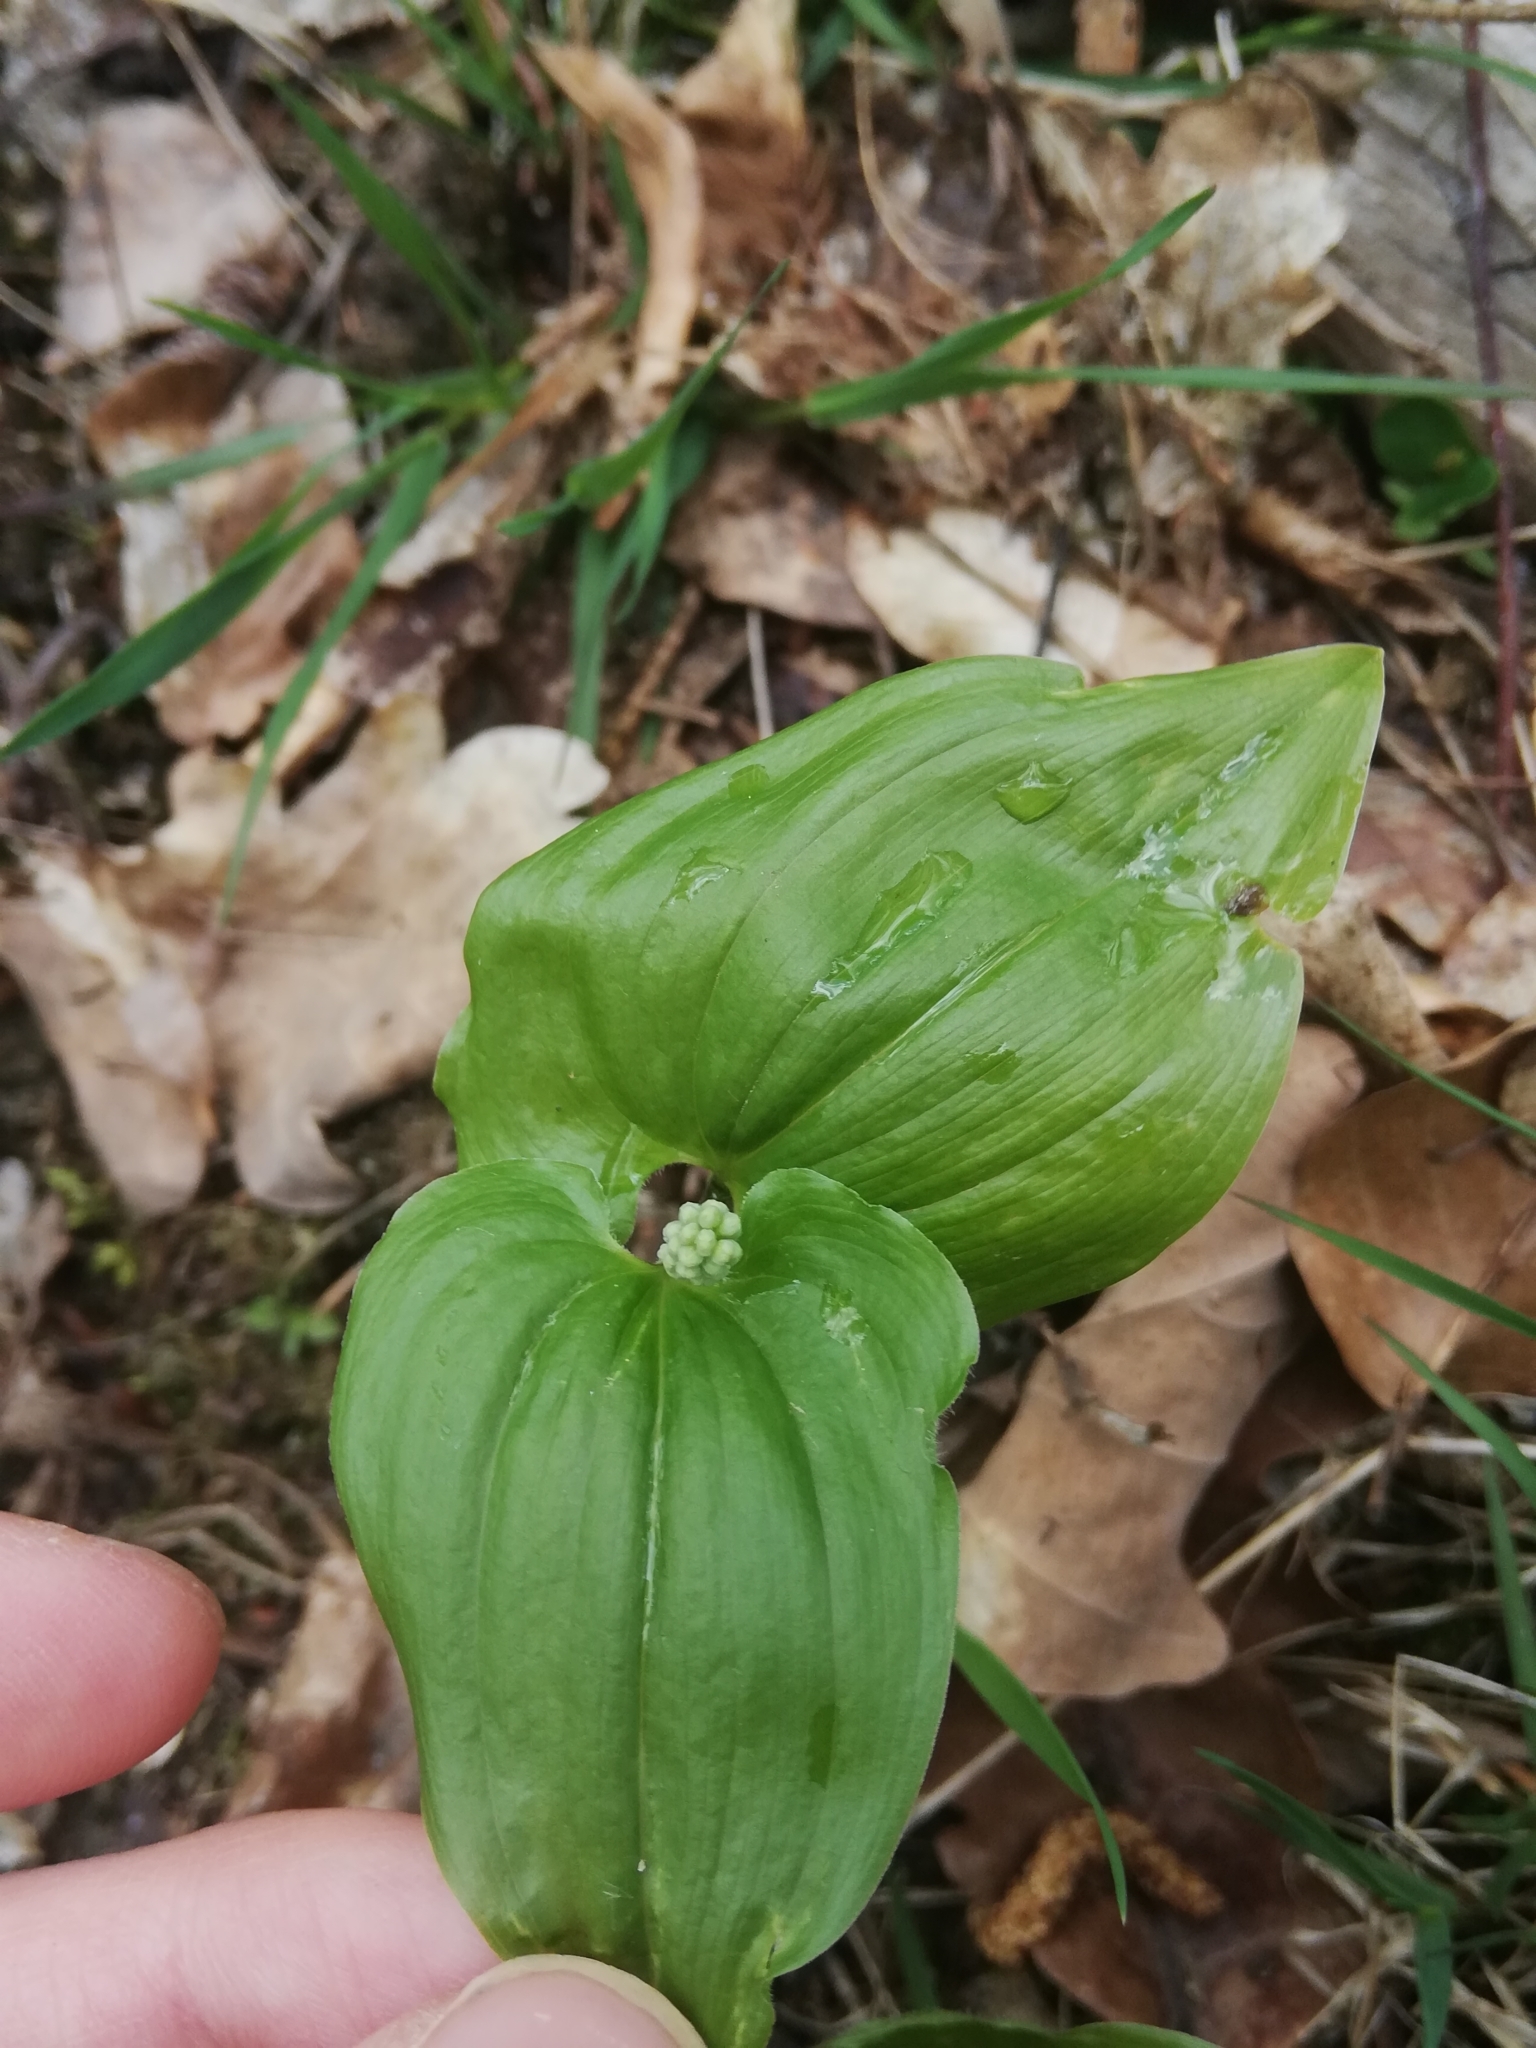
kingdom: Plantae
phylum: Tracheophyta
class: Liliopsida
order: Asparagales
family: Asparagaceae
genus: Maianthemum
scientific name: Maianthemum bifolium
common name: May lily
